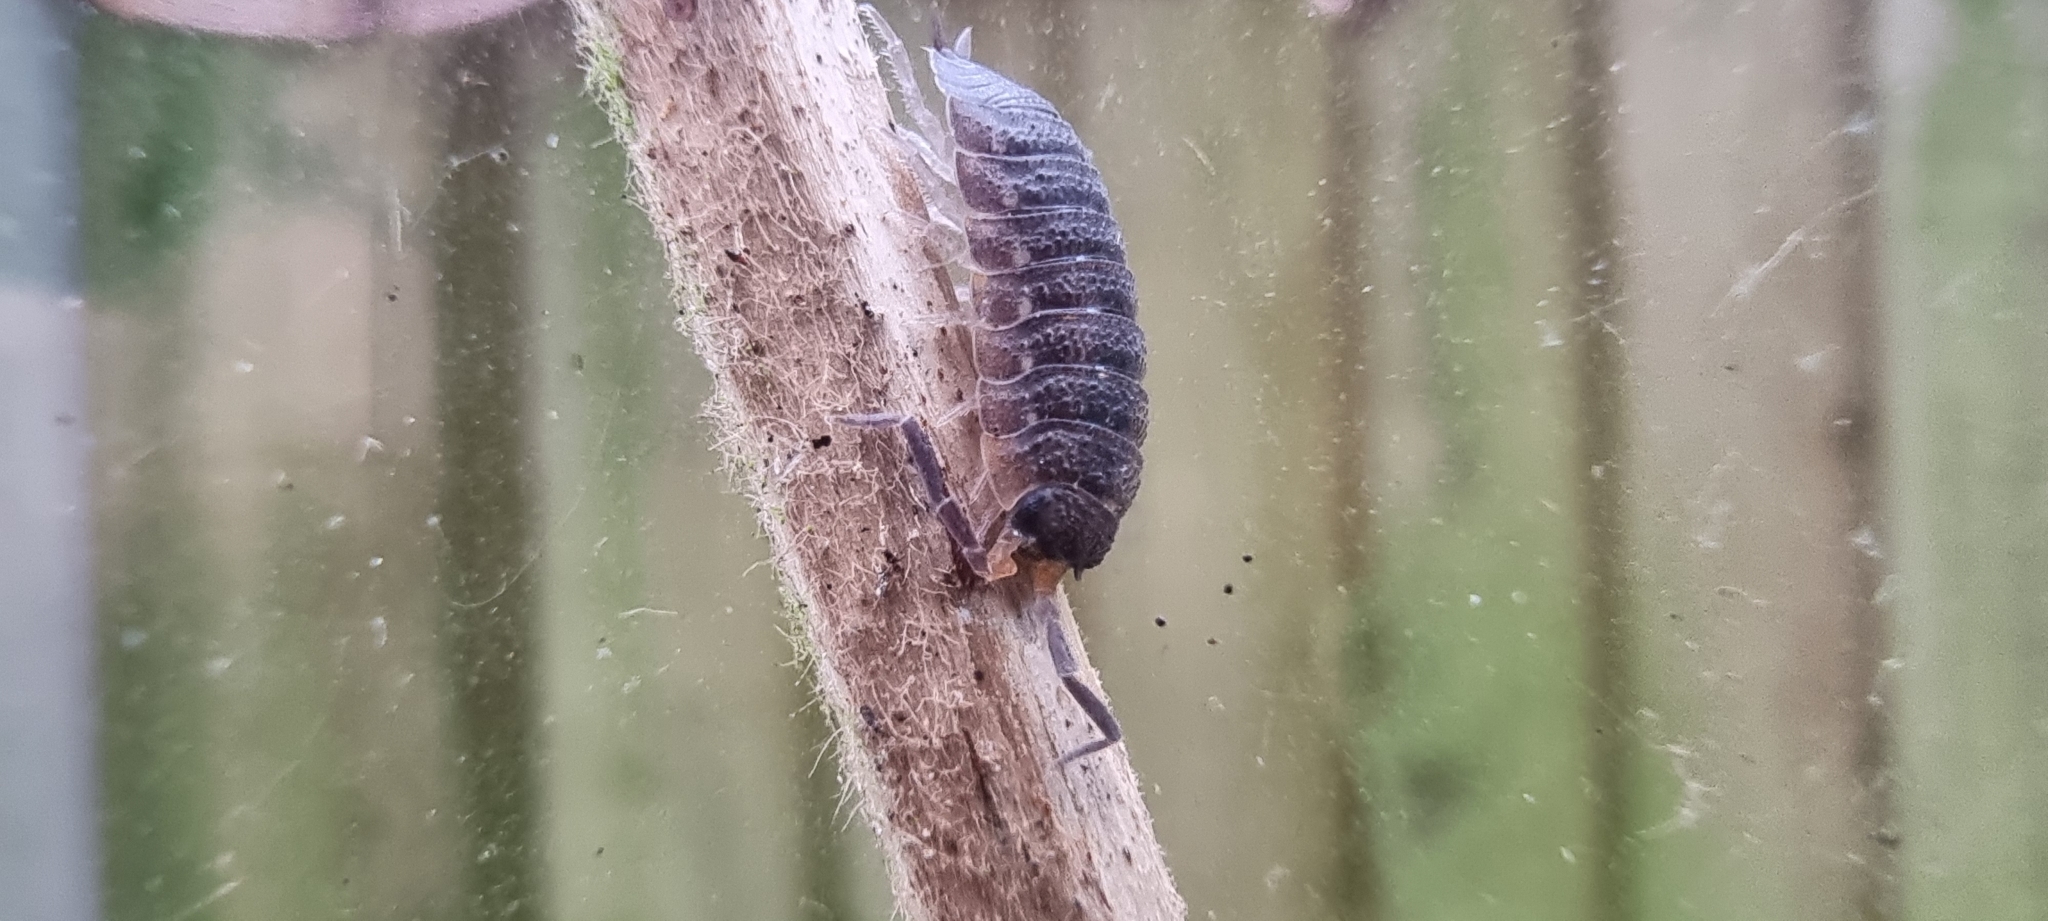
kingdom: Animalia
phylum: Arthropoda
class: Malacostraca
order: Isopoda
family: Porcellionidae
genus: Porcellio
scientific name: Porcellio scaber
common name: Common rough woodlouse
